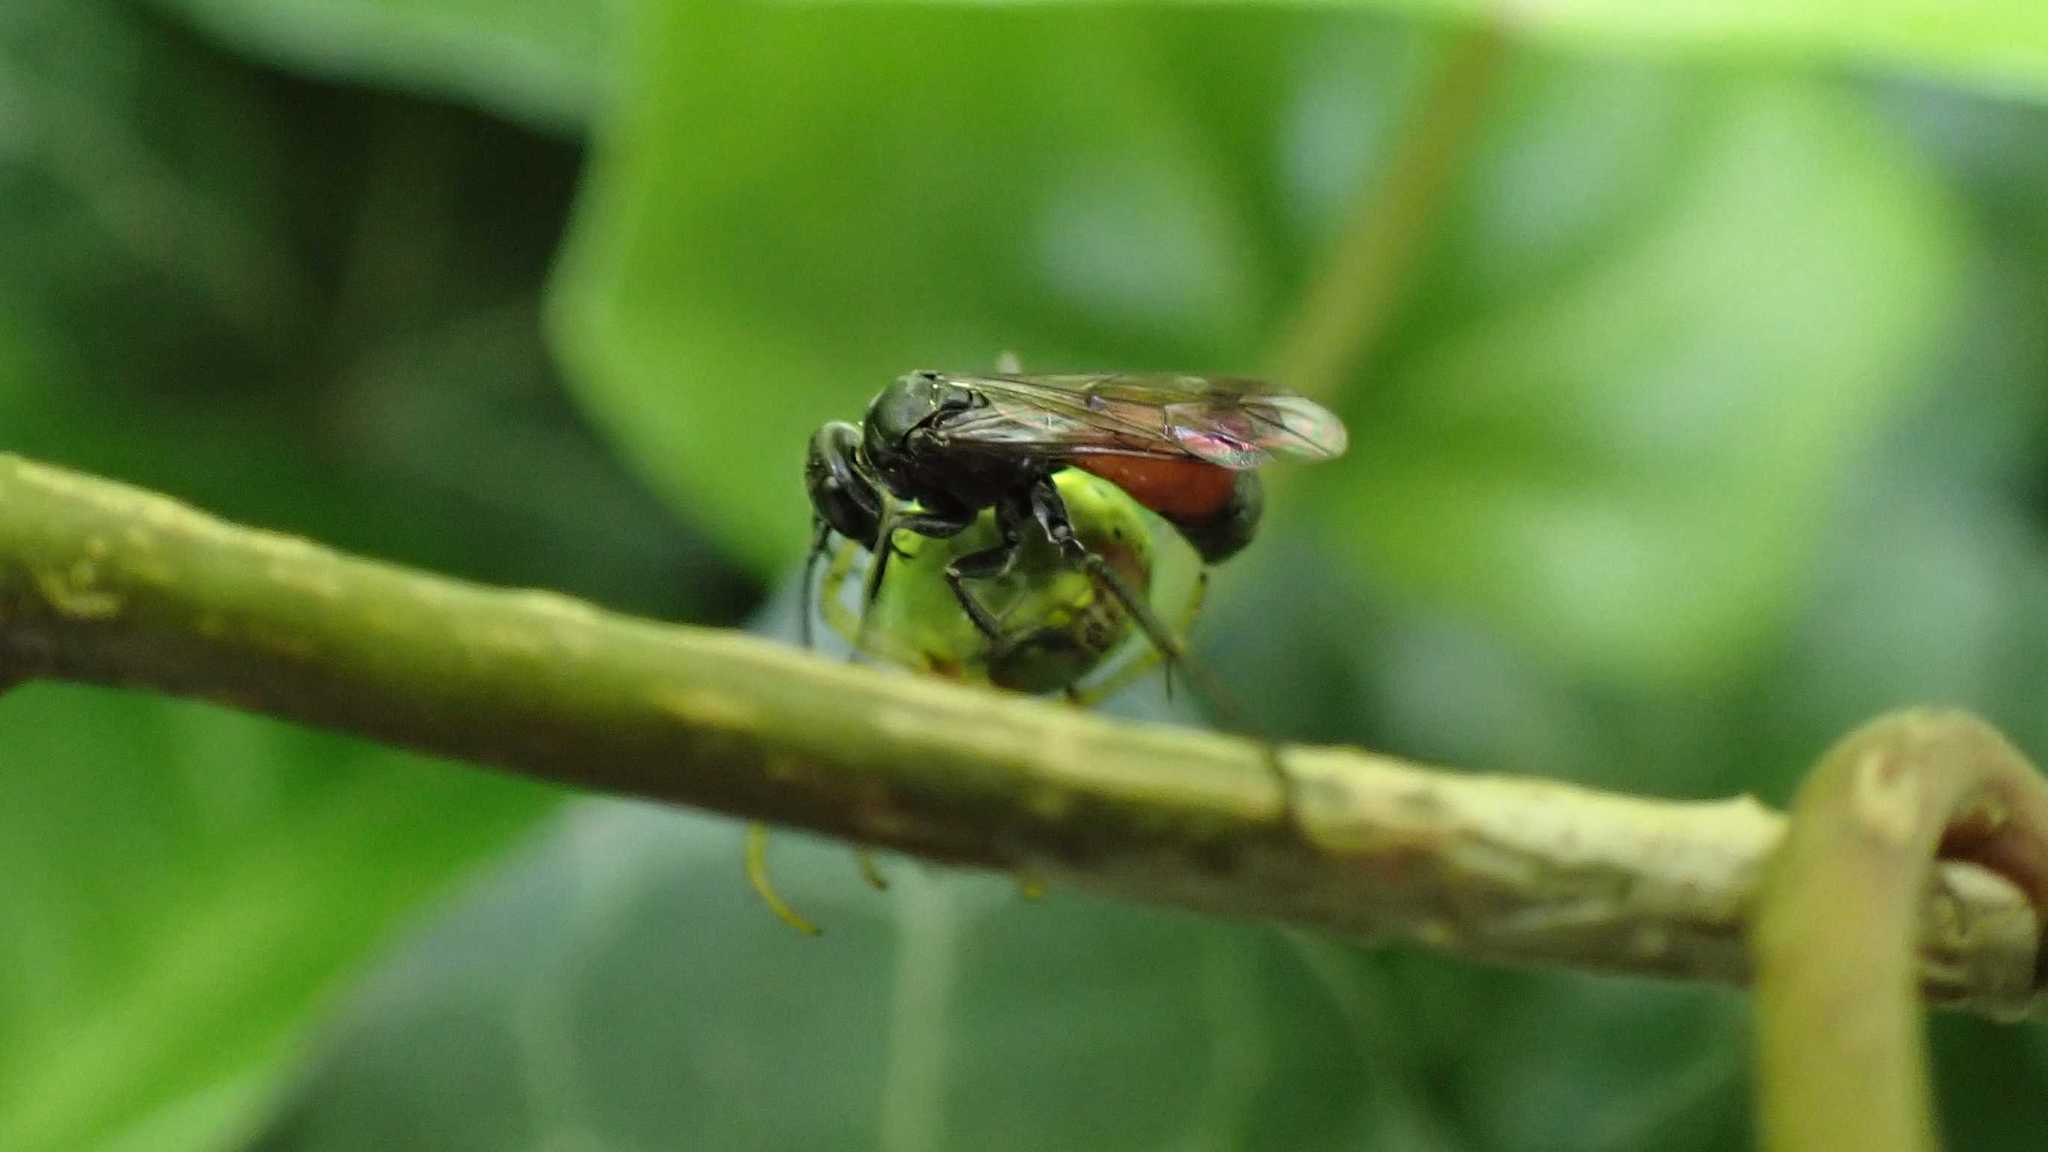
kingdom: Animalia
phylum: Arthropoda
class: Insecta
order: Hymenoptera
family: Pompilidae
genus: Caliadurgus
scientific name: Caliadurgus fasciatellus
